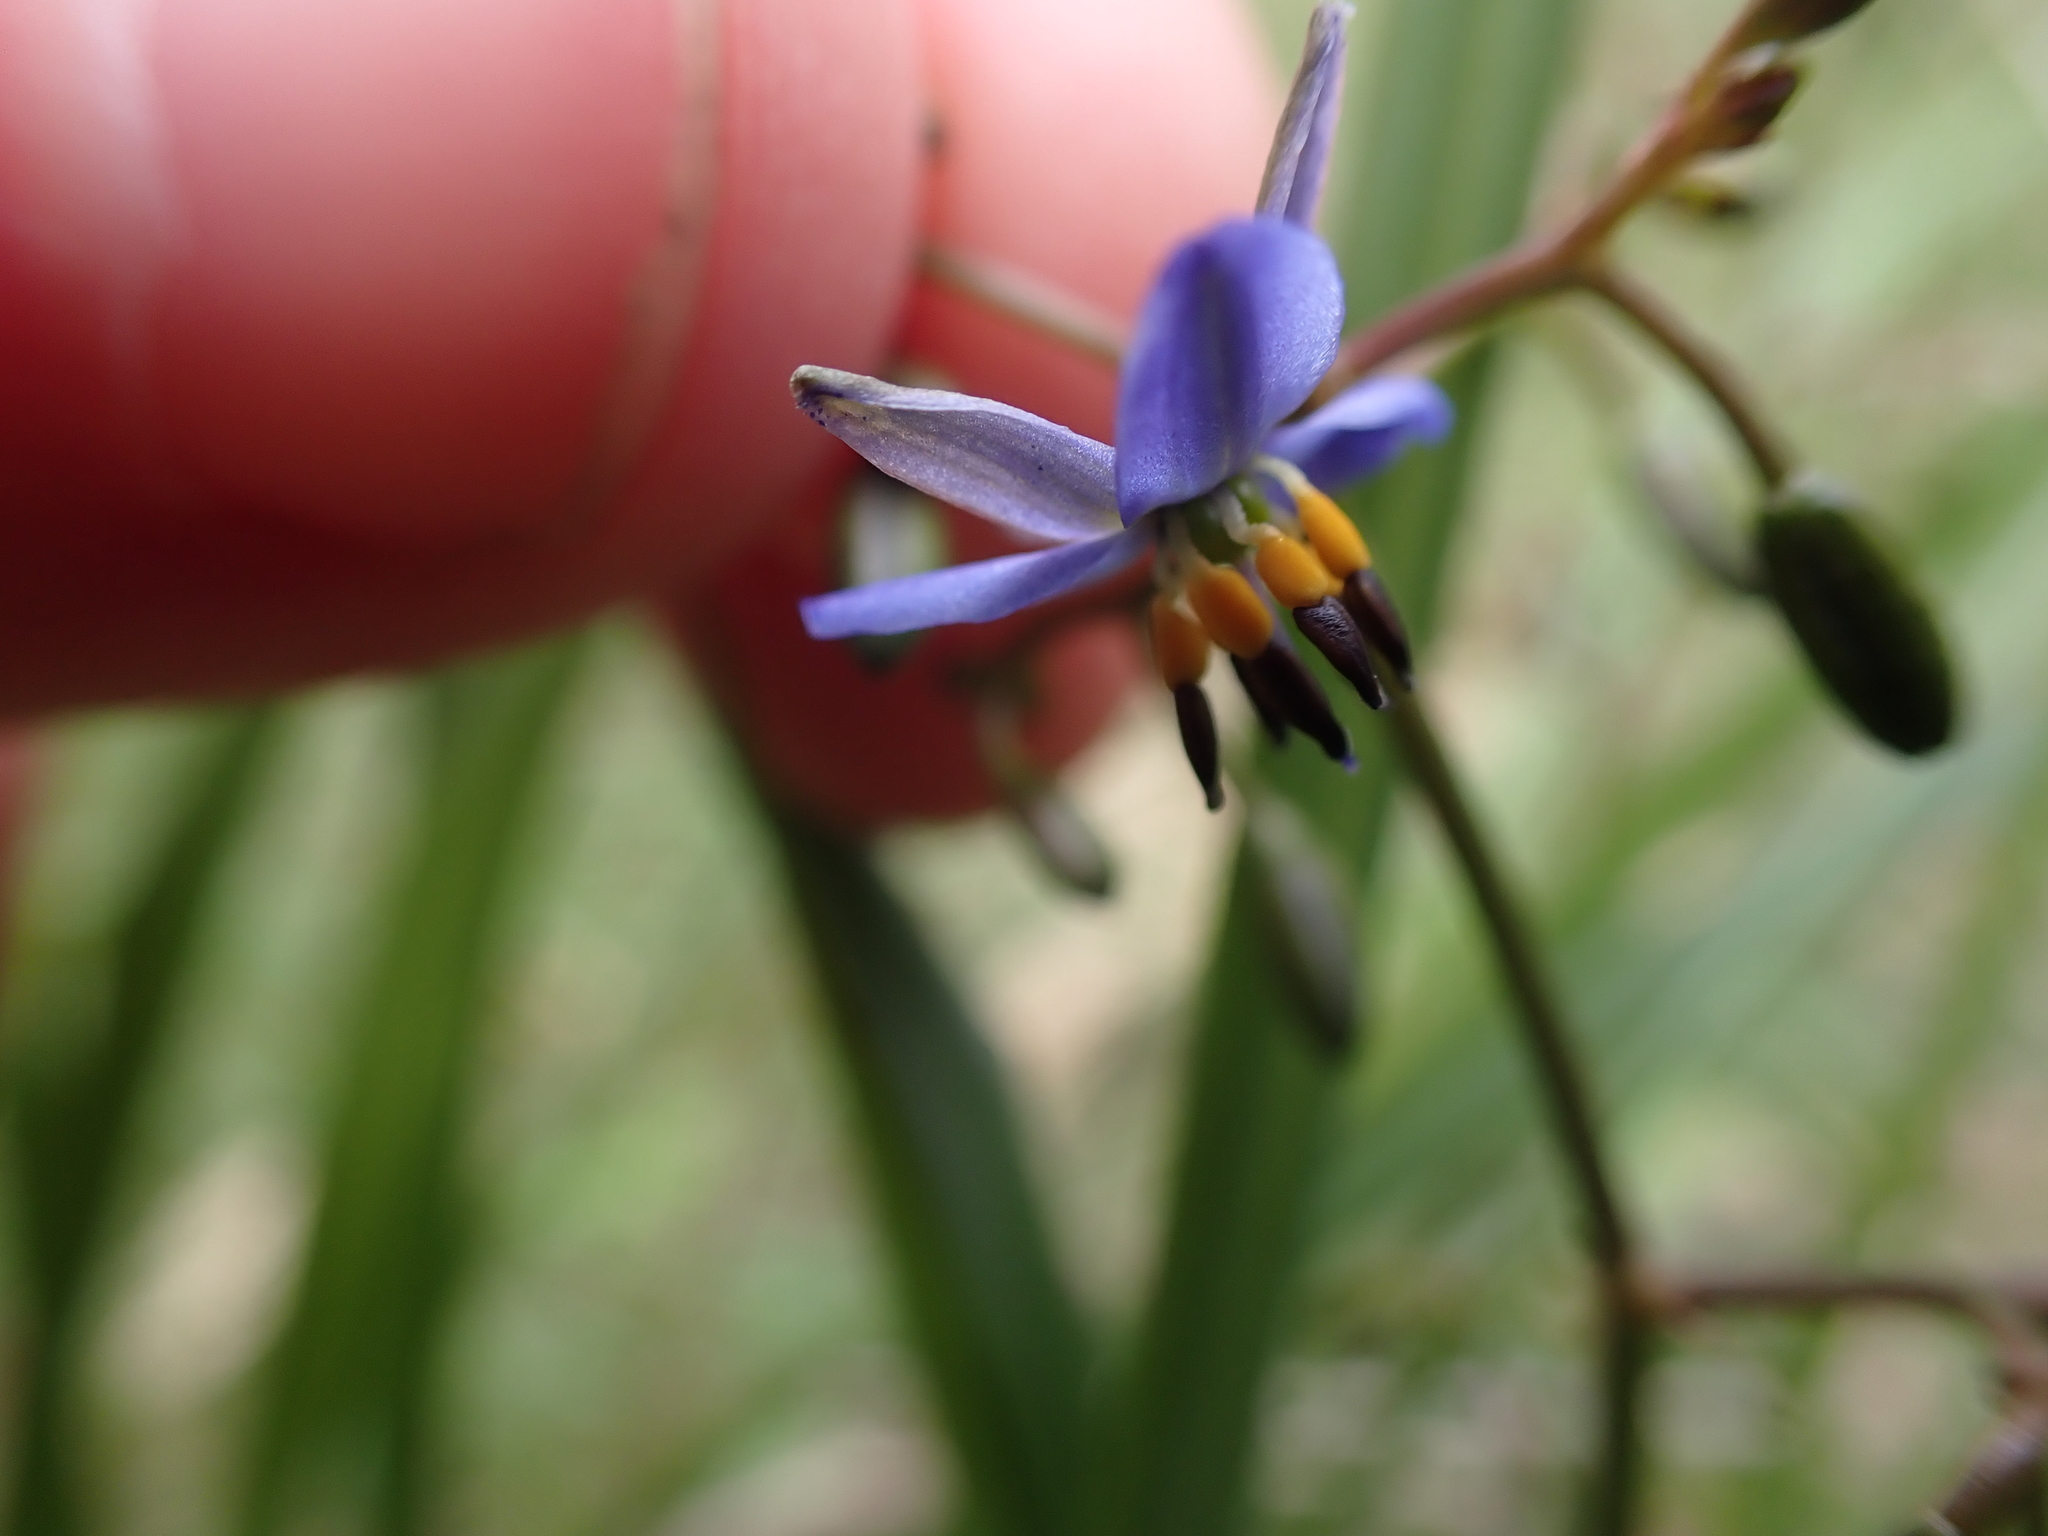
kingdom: Plantae
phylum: Tracheophyta
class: Liliopsida
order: Asparagales
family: Asphodelaceae
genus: Dianella
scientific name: Dianella brevicaulis
